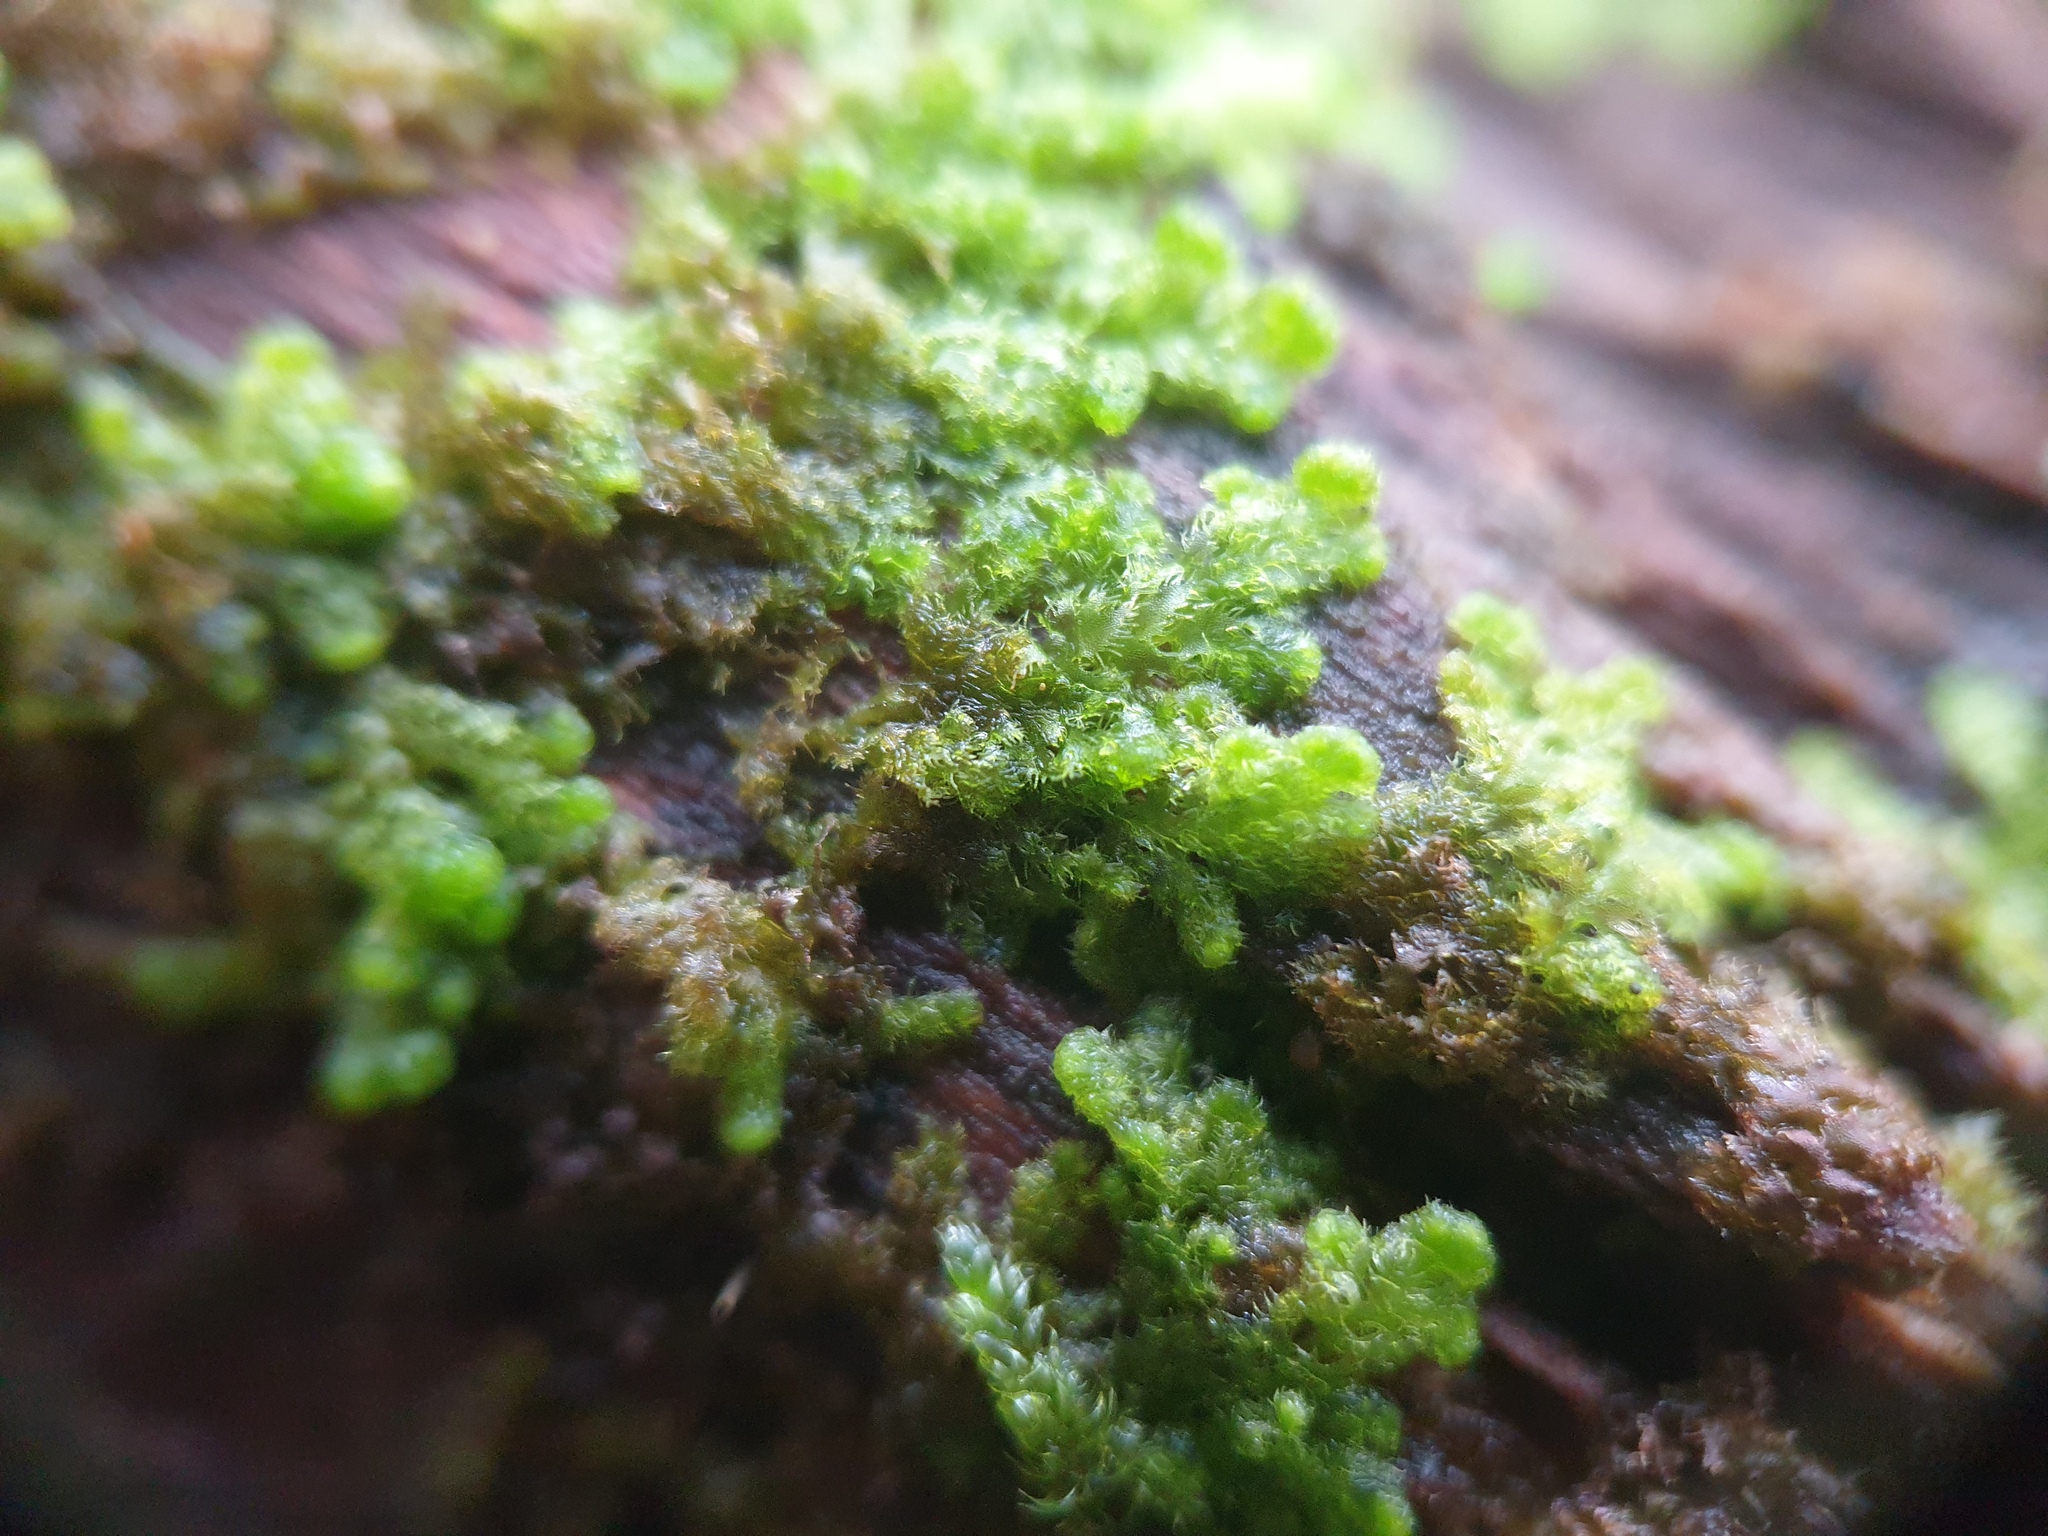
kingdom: Plantae
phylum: Marchantiophyta
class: Jungermanniopsida
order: Ptilidiales
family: Ptilidiaceae
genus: Ptilidium
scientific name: Ptilidium pulcherrimum
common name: Tree fringewort
